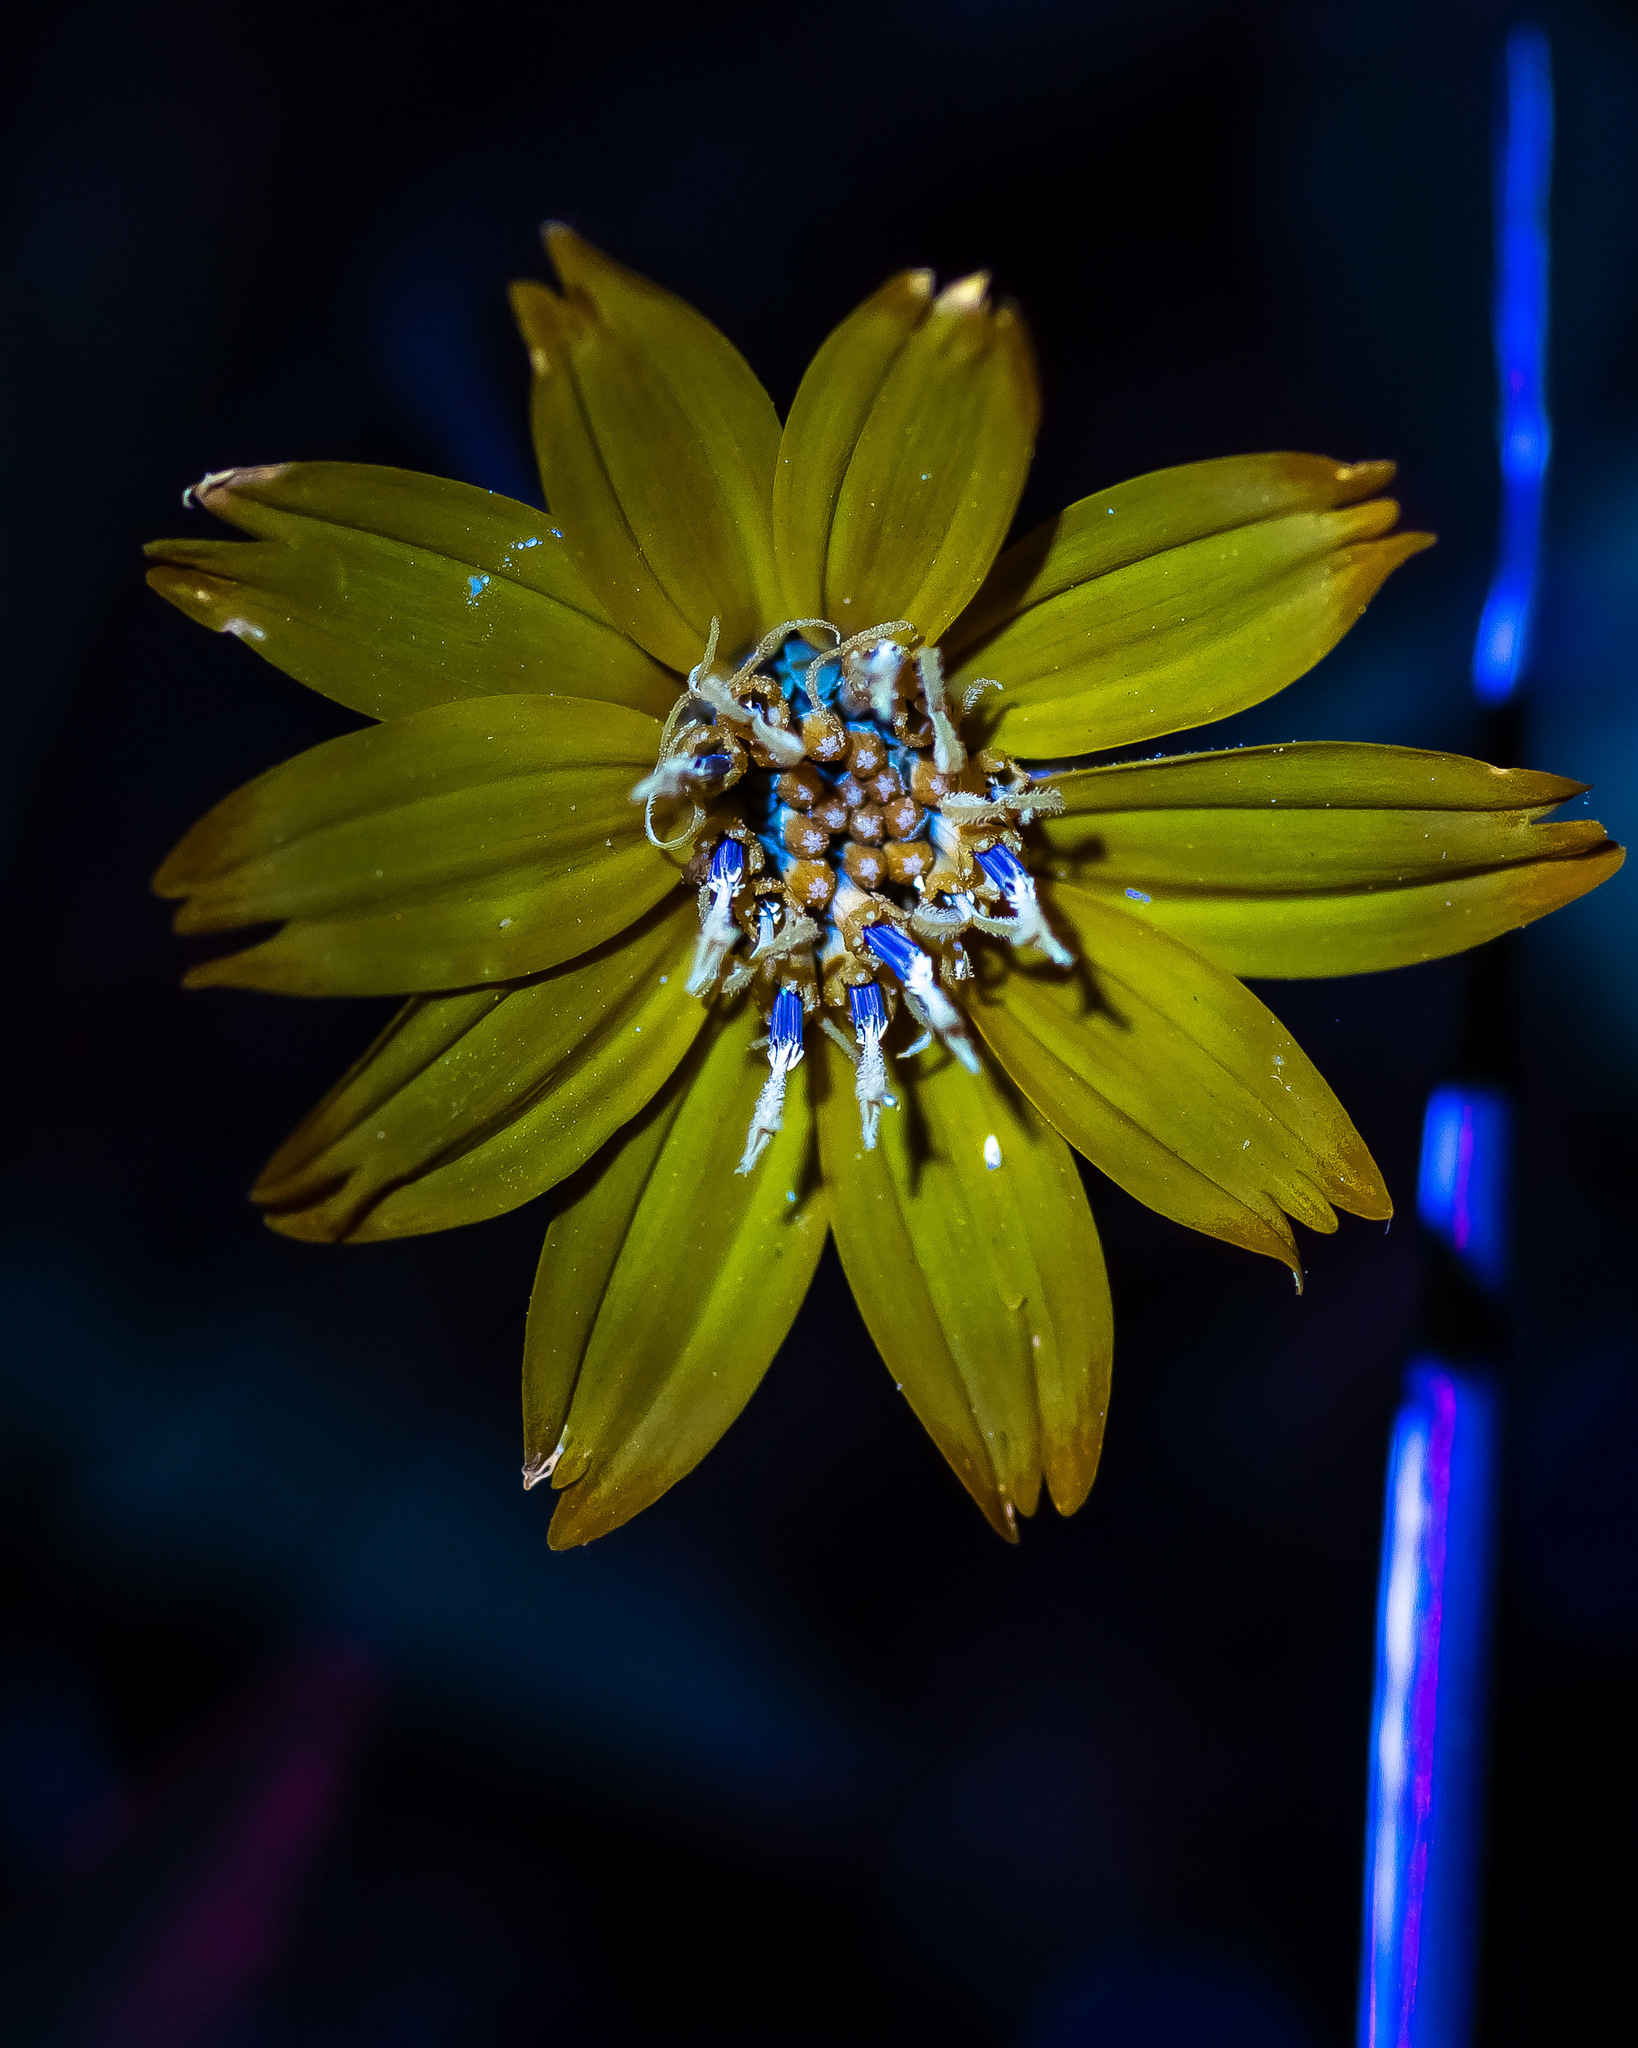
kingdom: Plantae
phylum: Tracheophyta
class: Magnoliopsida
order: Asterales
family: Asteraceae
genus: Wedelia
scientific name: Wedelia acapulcensis
